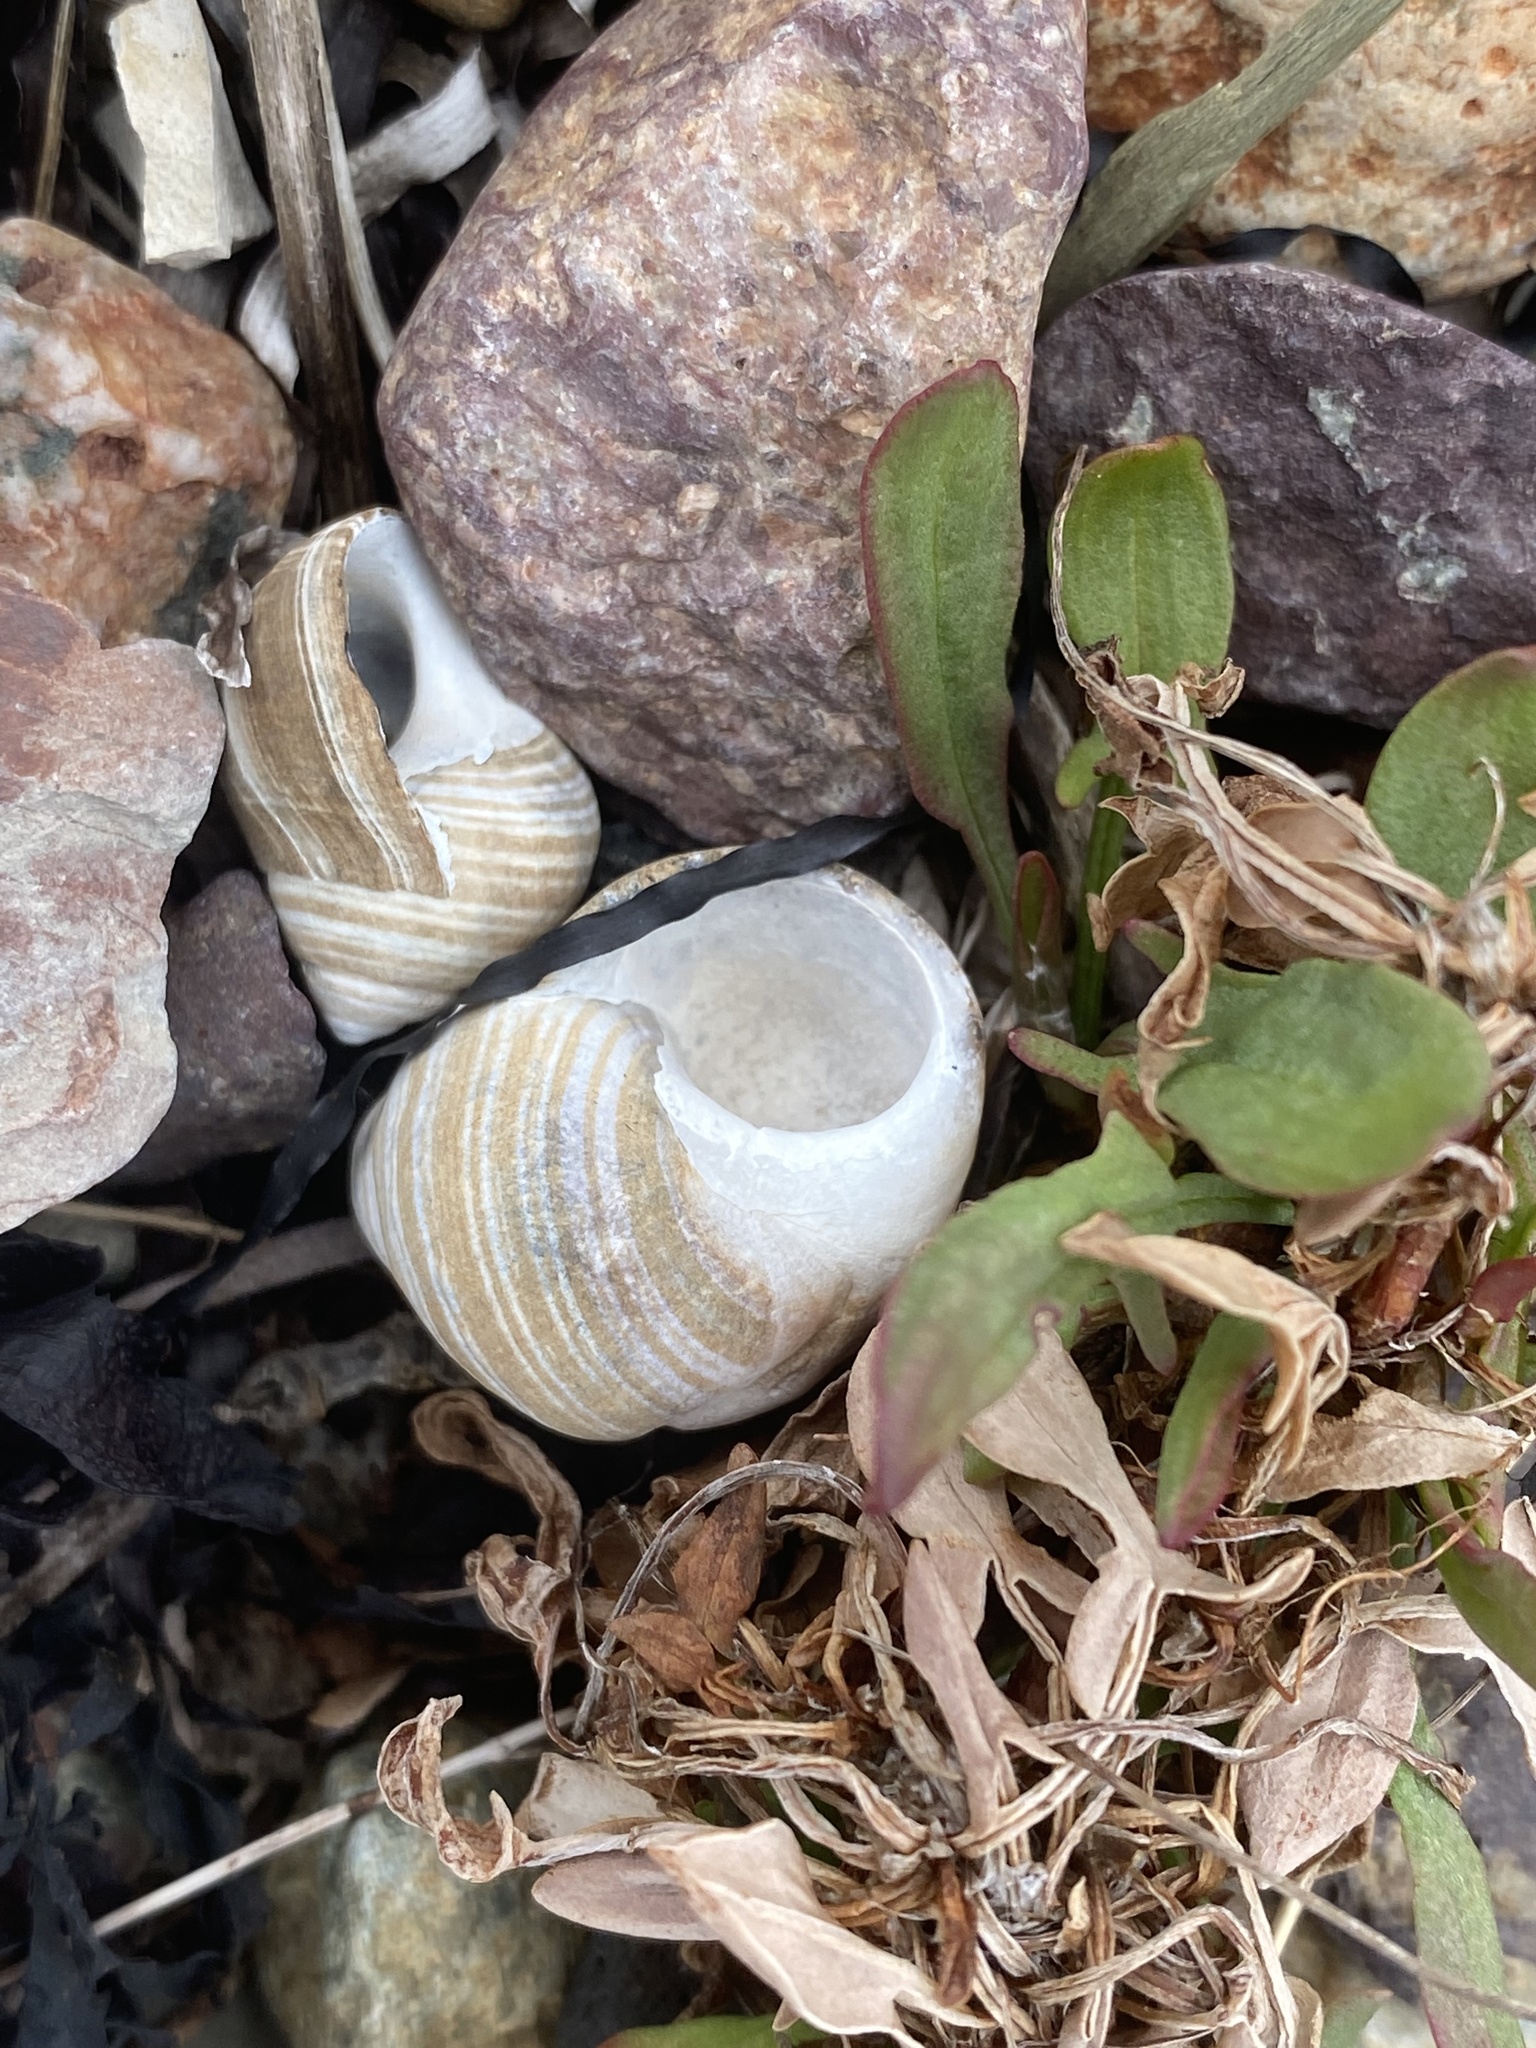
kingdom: Animalia
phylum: Mollusca
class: Gastropoda
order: Littorinimorpha
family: Littorinidae
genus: Littorina
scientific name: Littorina littorea
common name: Common periwinkle
